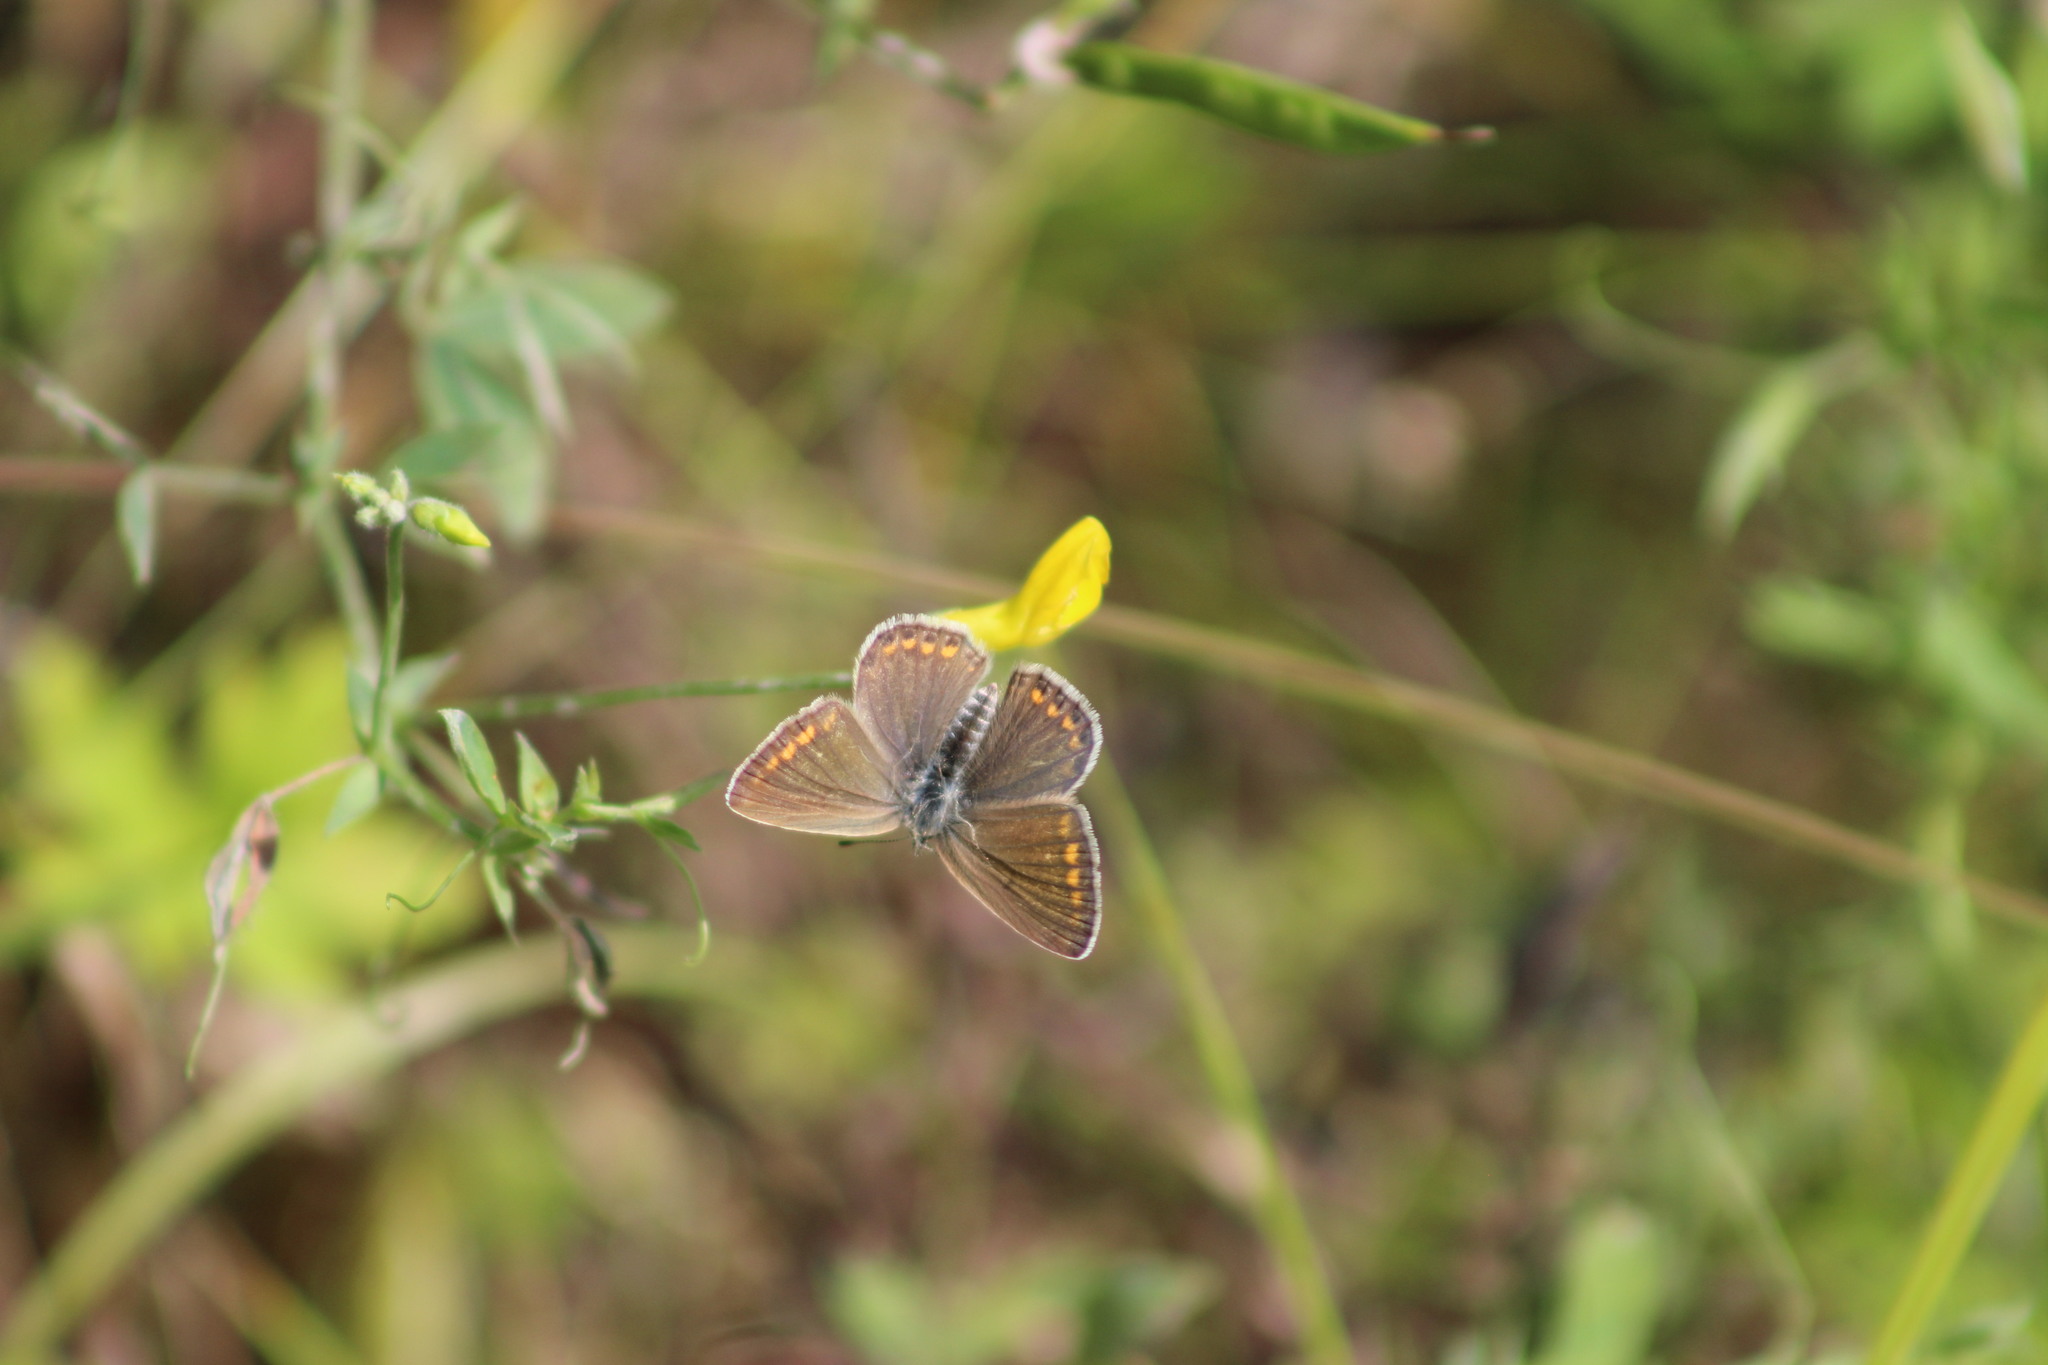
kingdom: Animalia
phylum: Arthropoda
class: Insecta
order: Lepidoptera
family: Lycaenidae
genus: Polyommatus
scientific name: Polyommatus icarus
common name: Common blue
